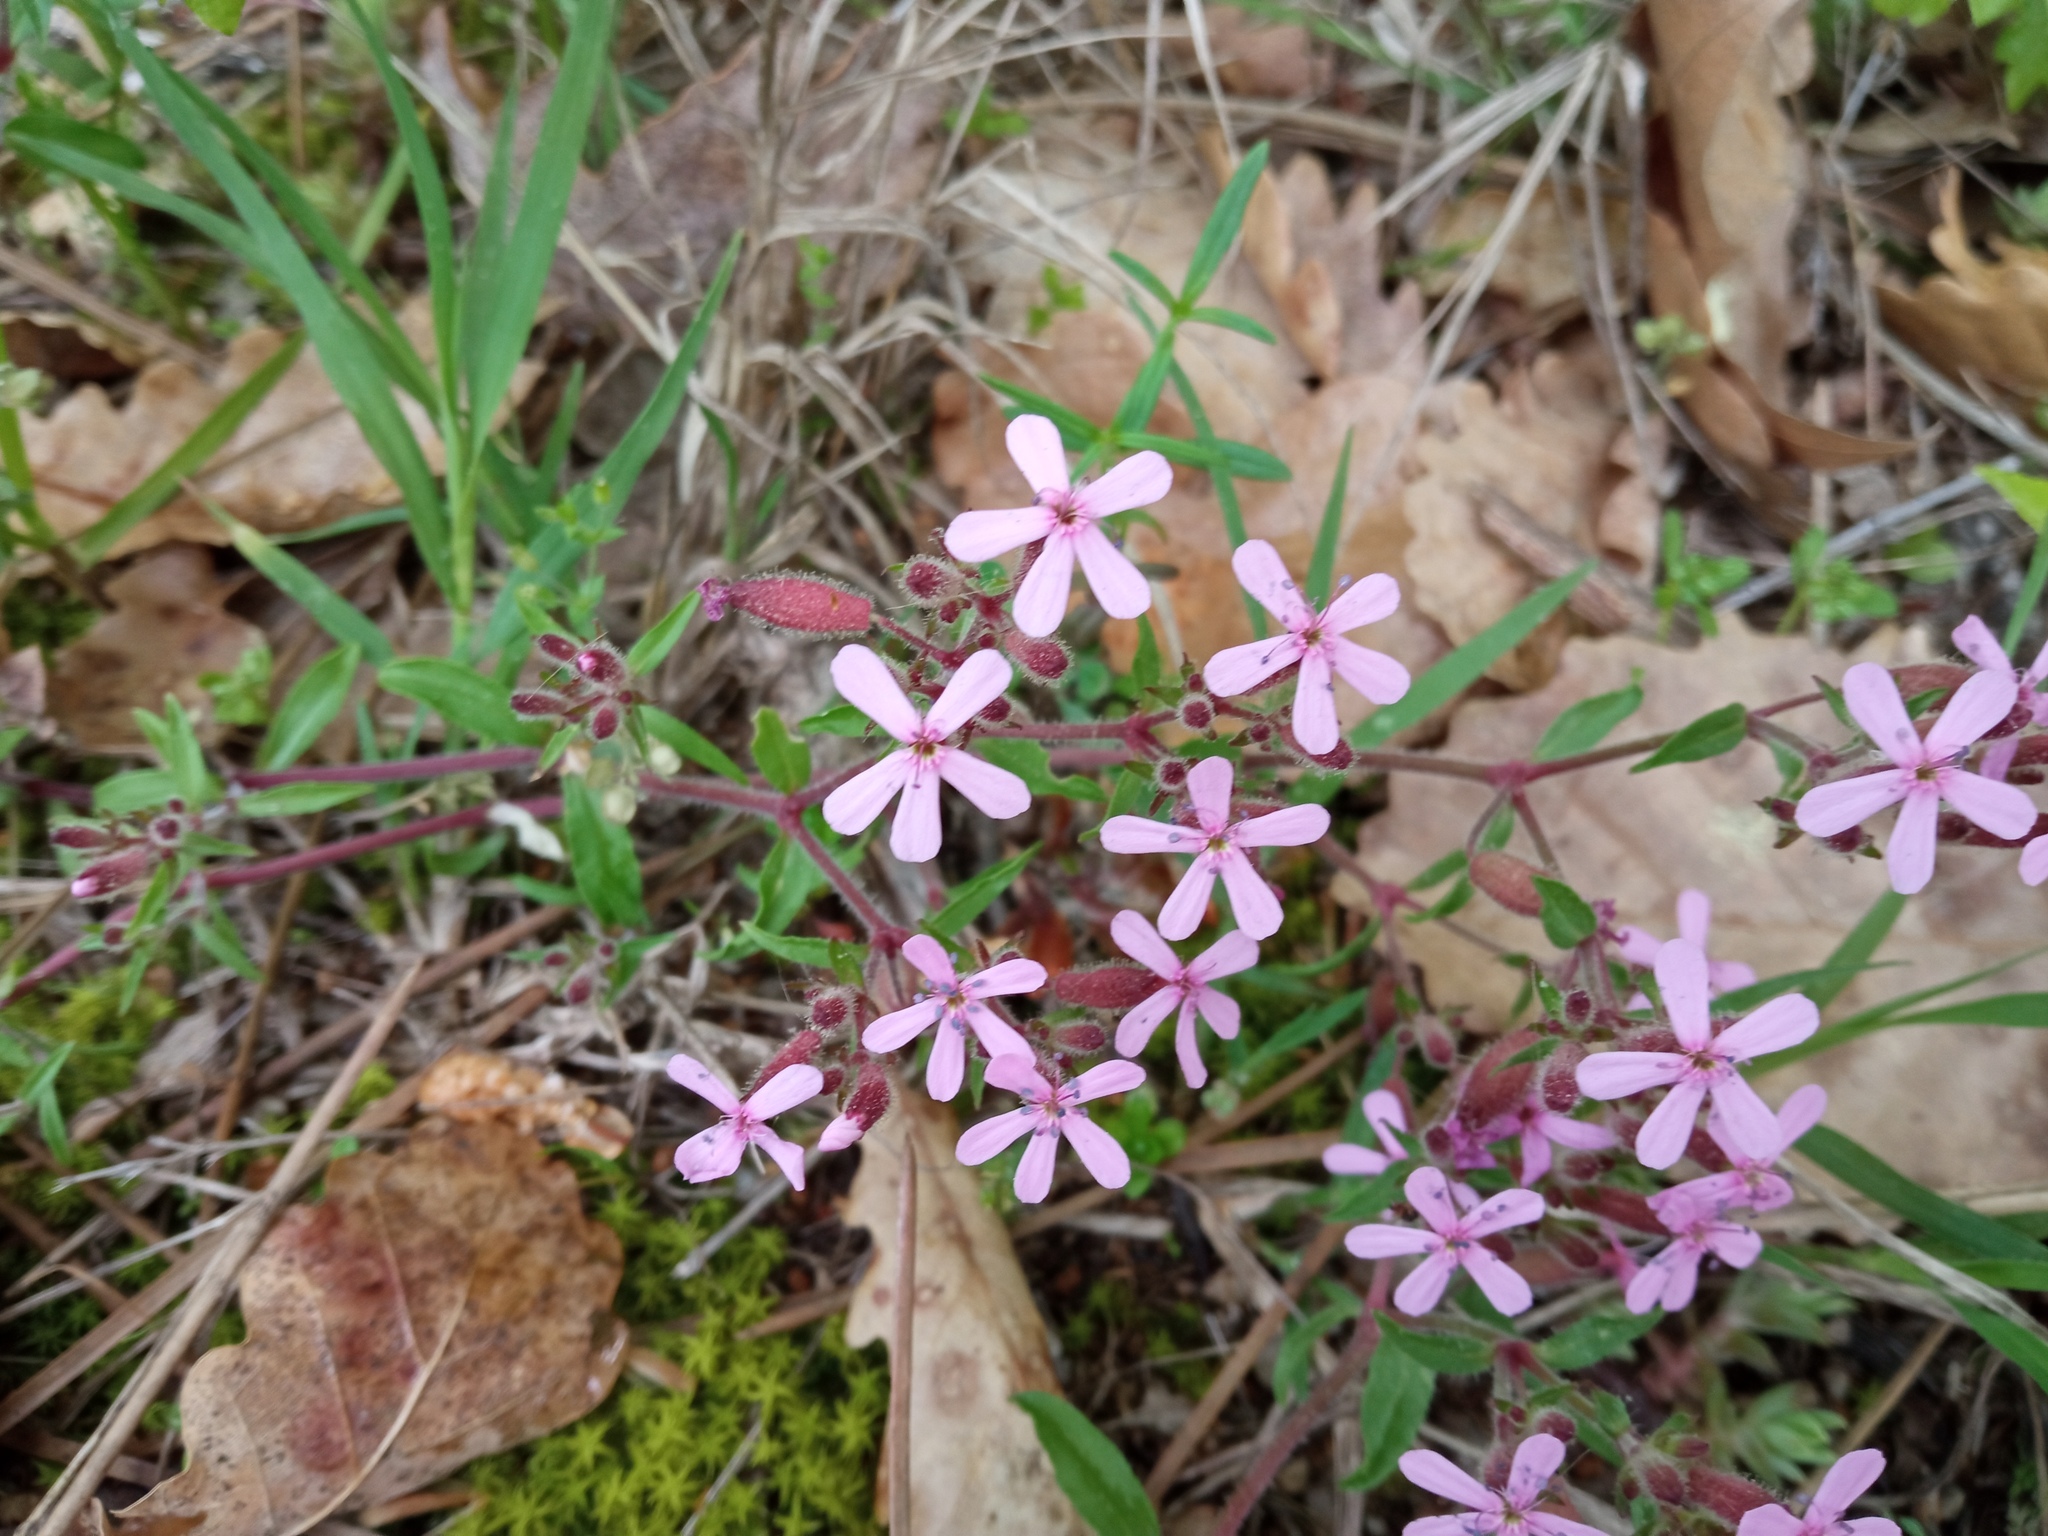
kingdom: Plantae
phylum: Tracheophyta
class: Magnoliopsida
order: Caryophyllales
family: Caryophyllaceae
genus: Saponaria
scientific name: Saponaria ocymoides
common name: Rock soapwort
